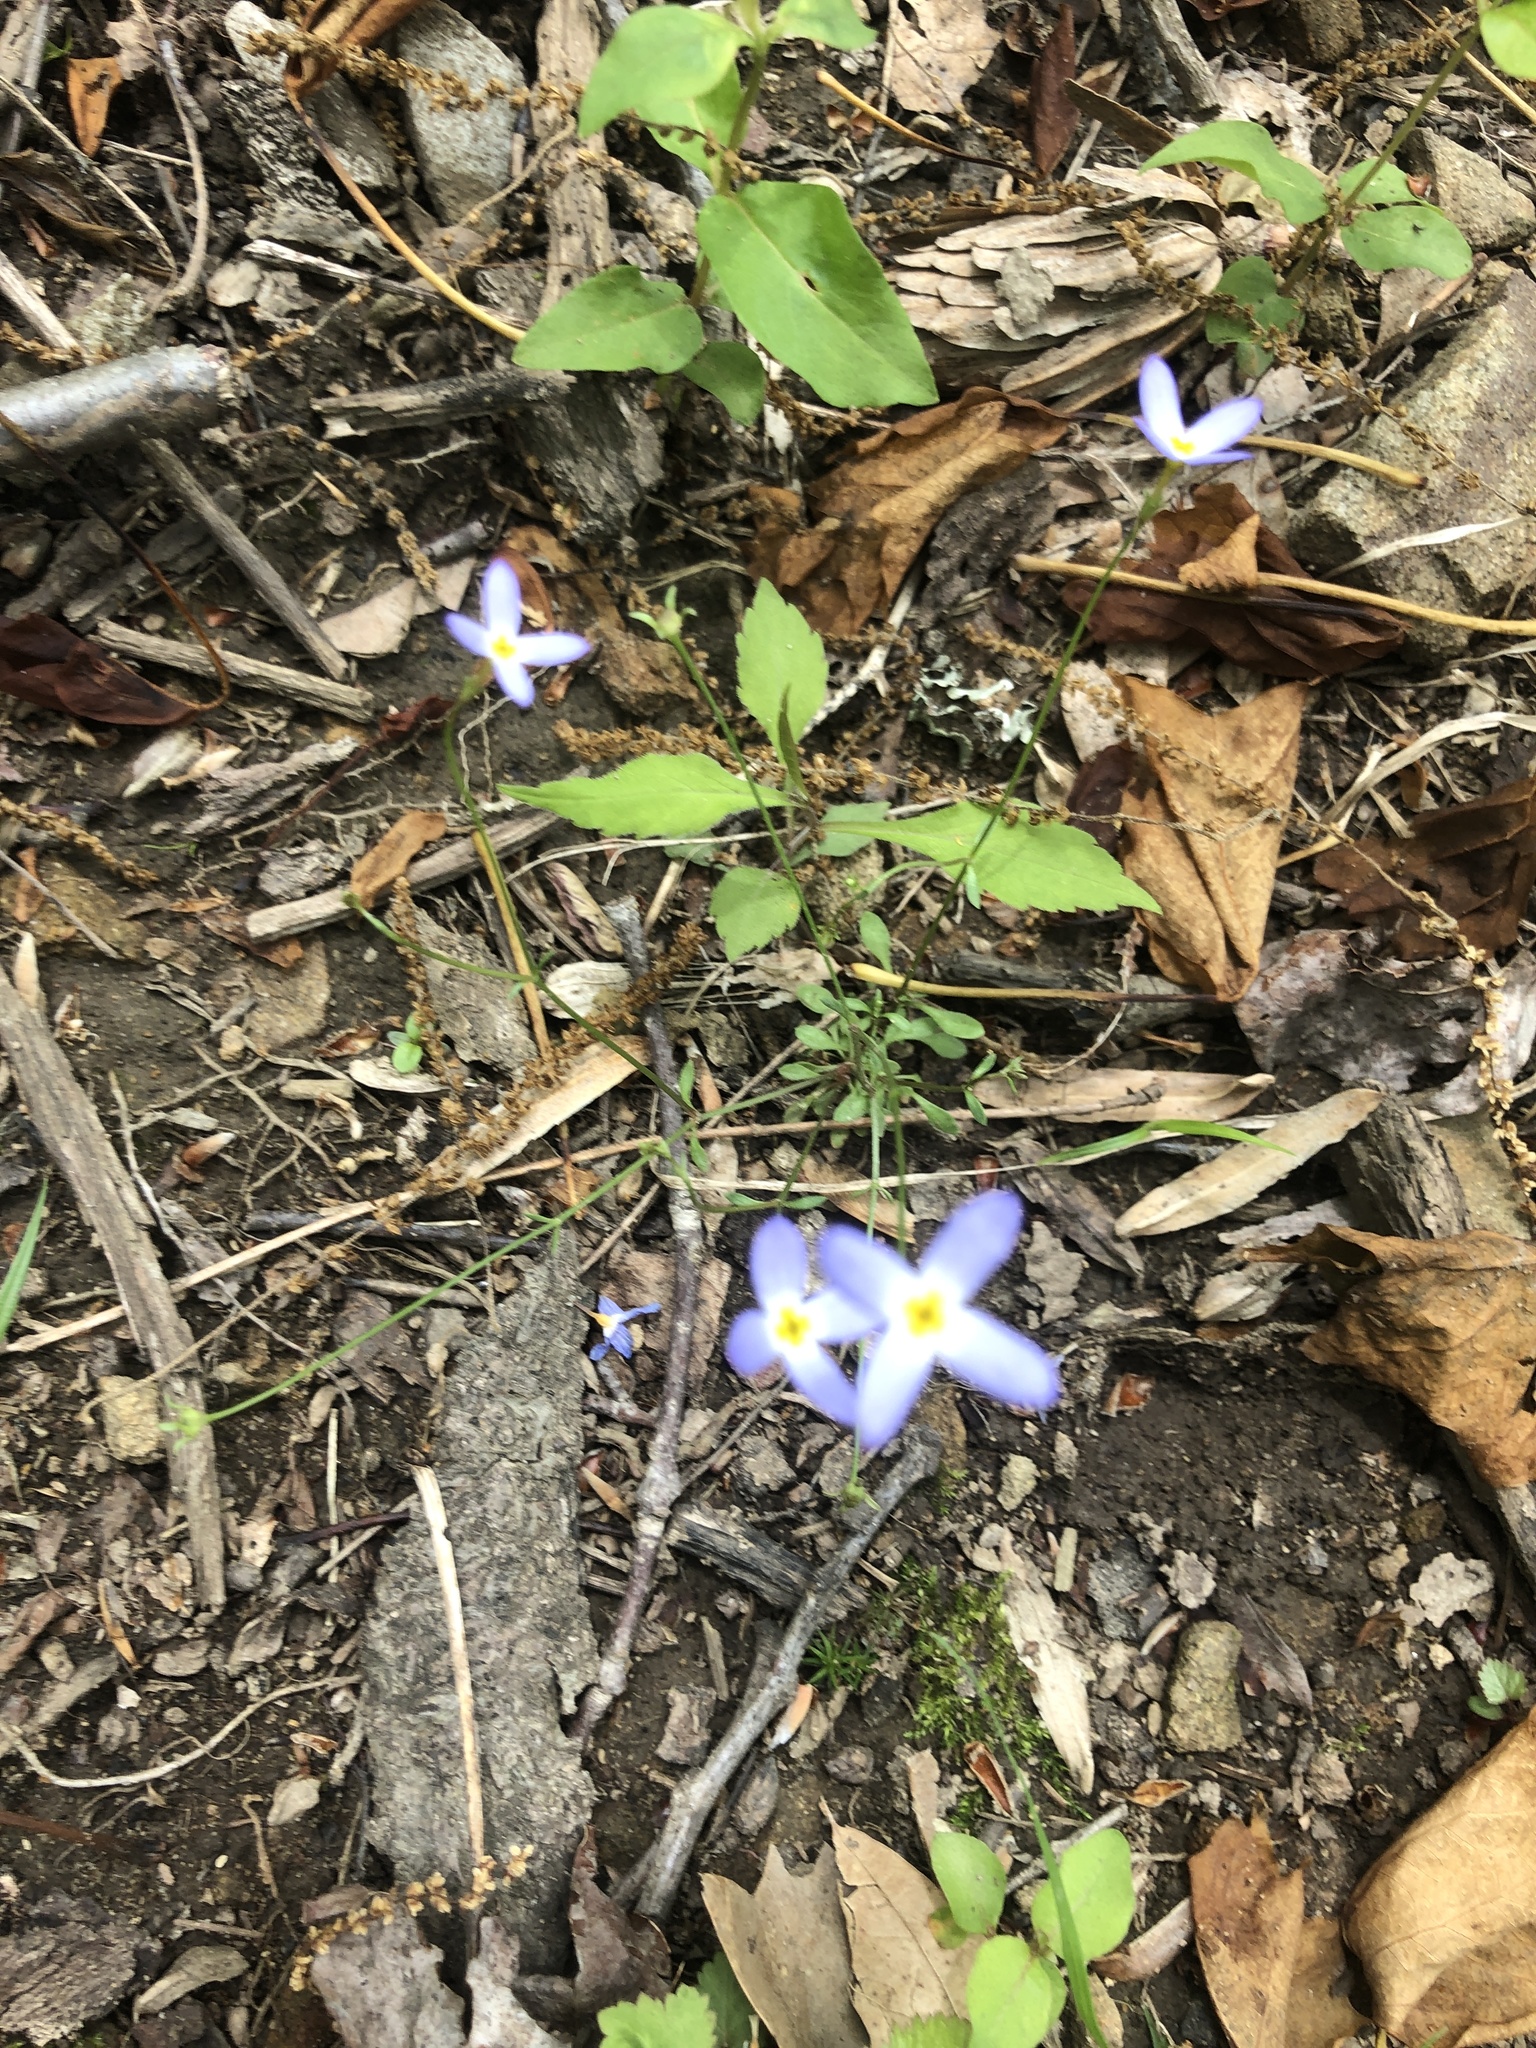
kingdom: Plantae
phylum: Tracheophyta
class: Magnoliopsida
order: Gentianales
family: Rubiaceae
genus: Houstonia
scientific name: Houstonia caerulea
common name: Bluets
